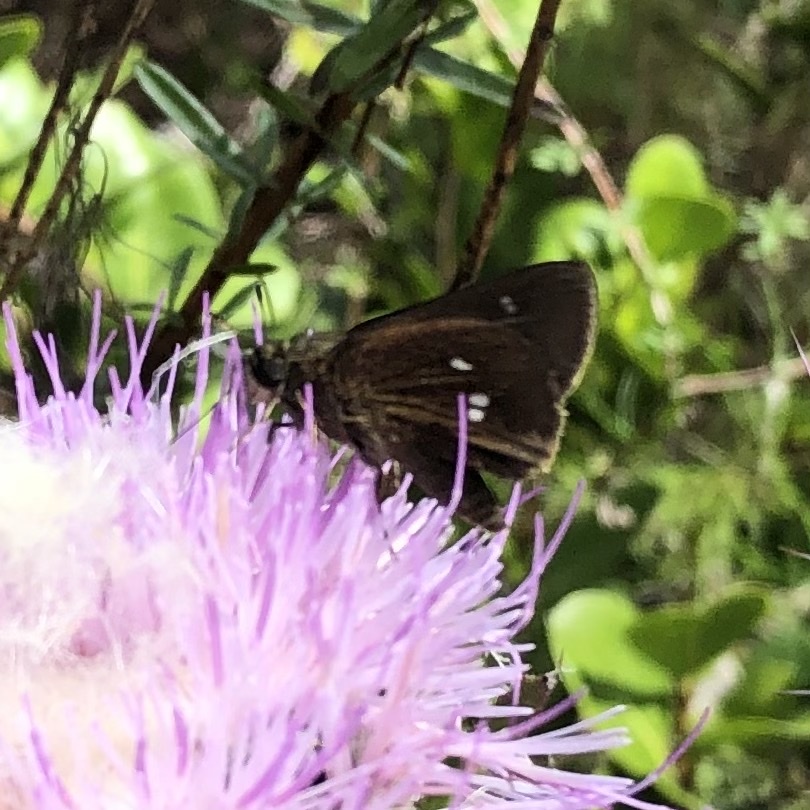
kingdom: Animalia
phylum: Arthropoda
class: Insecta
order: Lepidoptera
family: Hesperiidae
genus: Oligoria
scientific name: Oligoria maculata
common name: Twin-spot skipper
